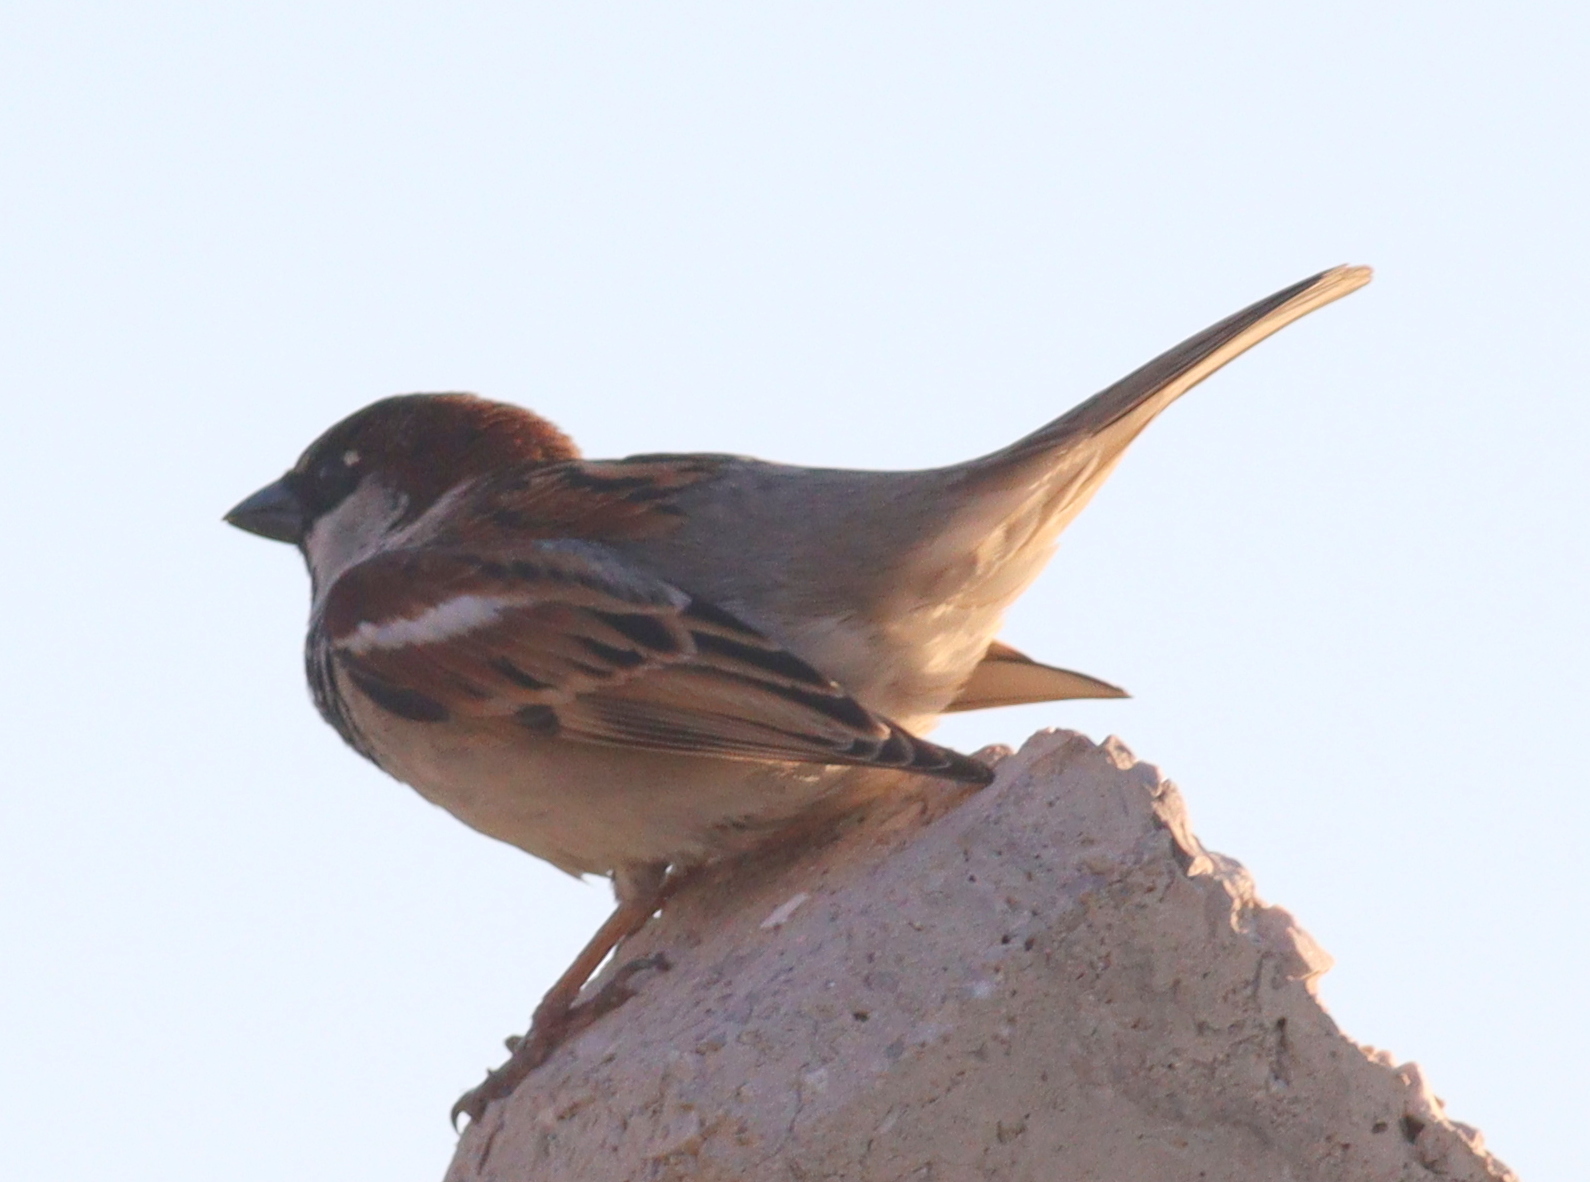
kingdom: Animalia
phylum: Chordata
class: Aves
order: Passeriformes
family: Passeridae
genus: Passer
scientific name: Passer domesticus
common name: House sparrow
